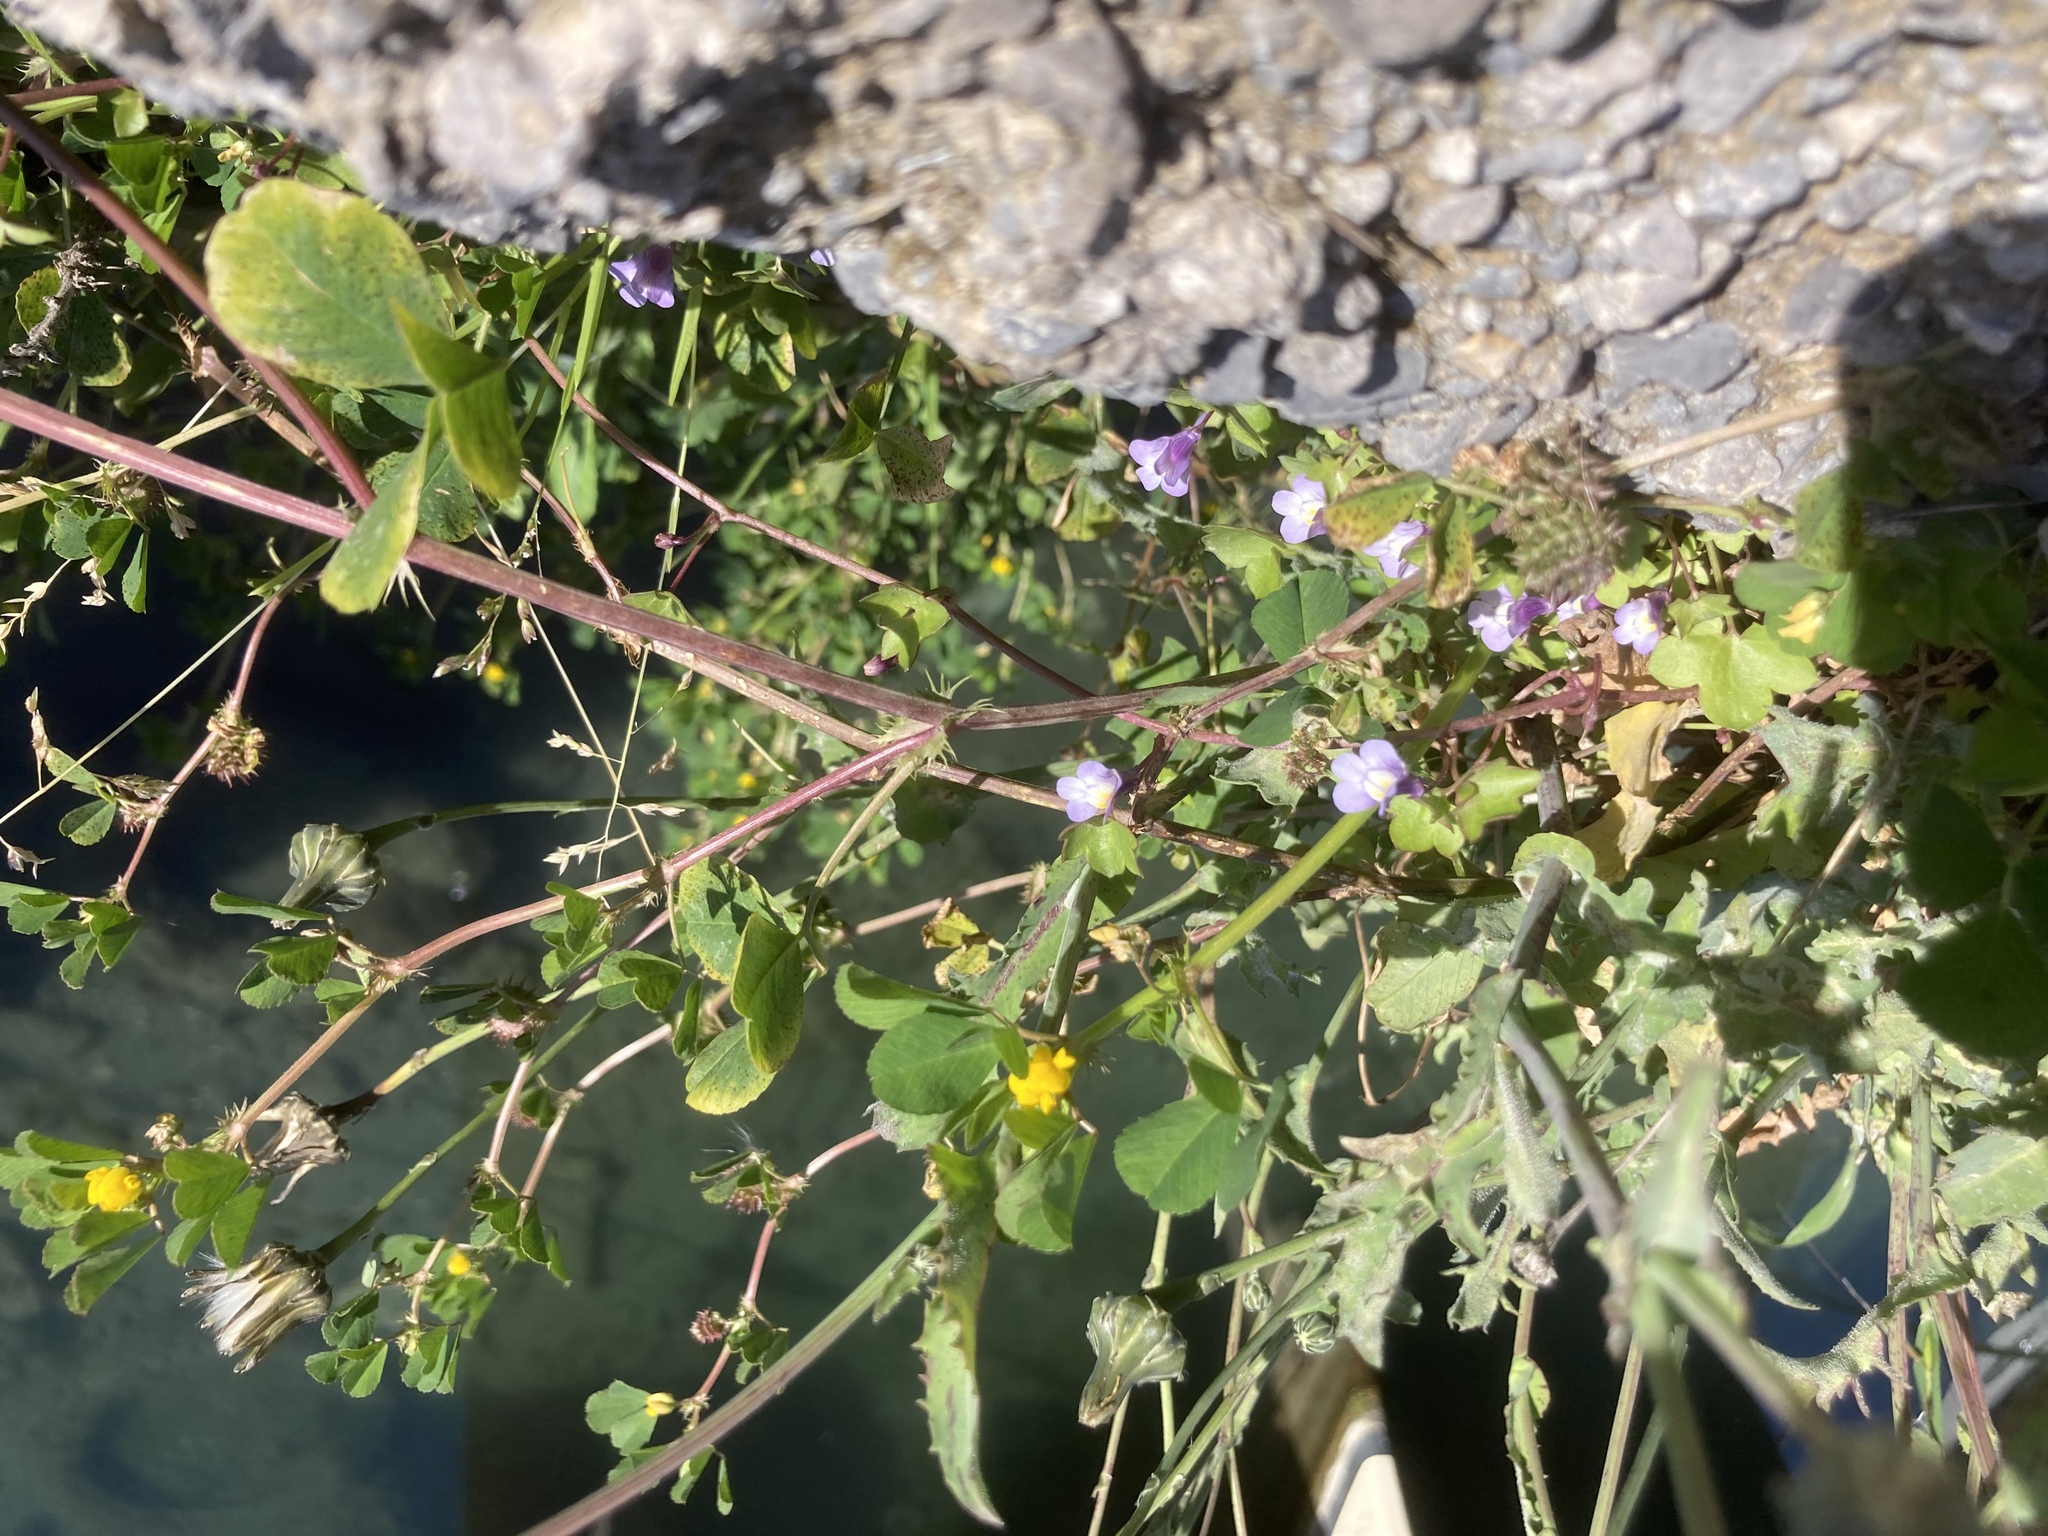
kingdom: Plantae
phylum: Tracheophyta
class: Magnoliopsida
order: Lamiales
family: Plantaginaceae
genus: Cymbalaria
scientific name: Cymbalaria muralis
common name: Ivy-leaved toadflax
